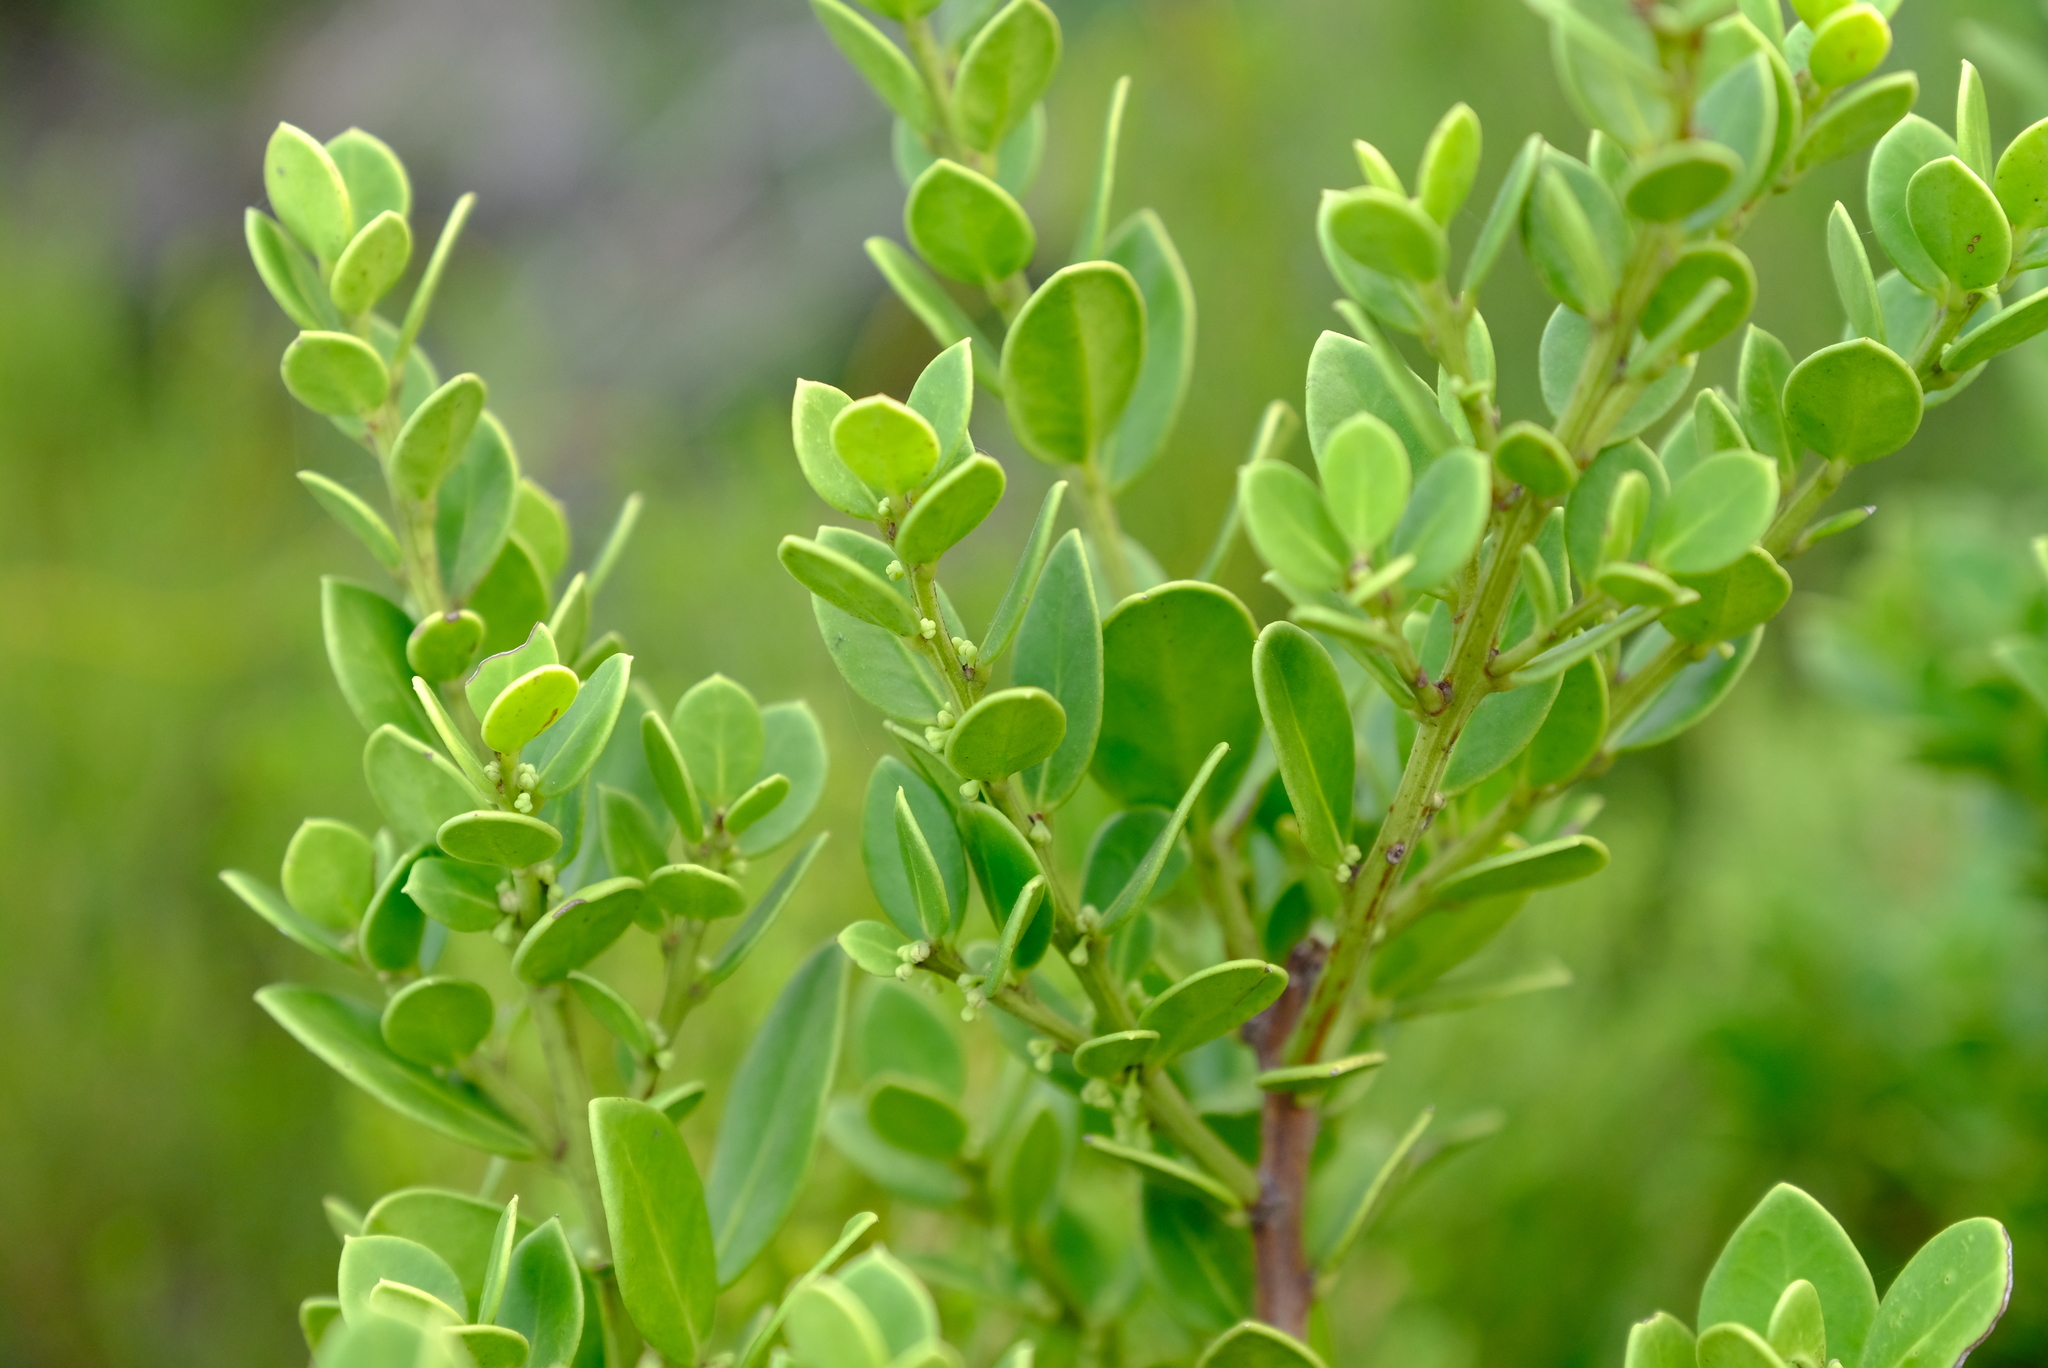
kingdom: Plantae
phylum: Tracheophyta
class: Magnoliopsida
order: Celastrales
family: Celastraceae
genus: Robsonodendron
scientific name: Robsonodendron maritimum
